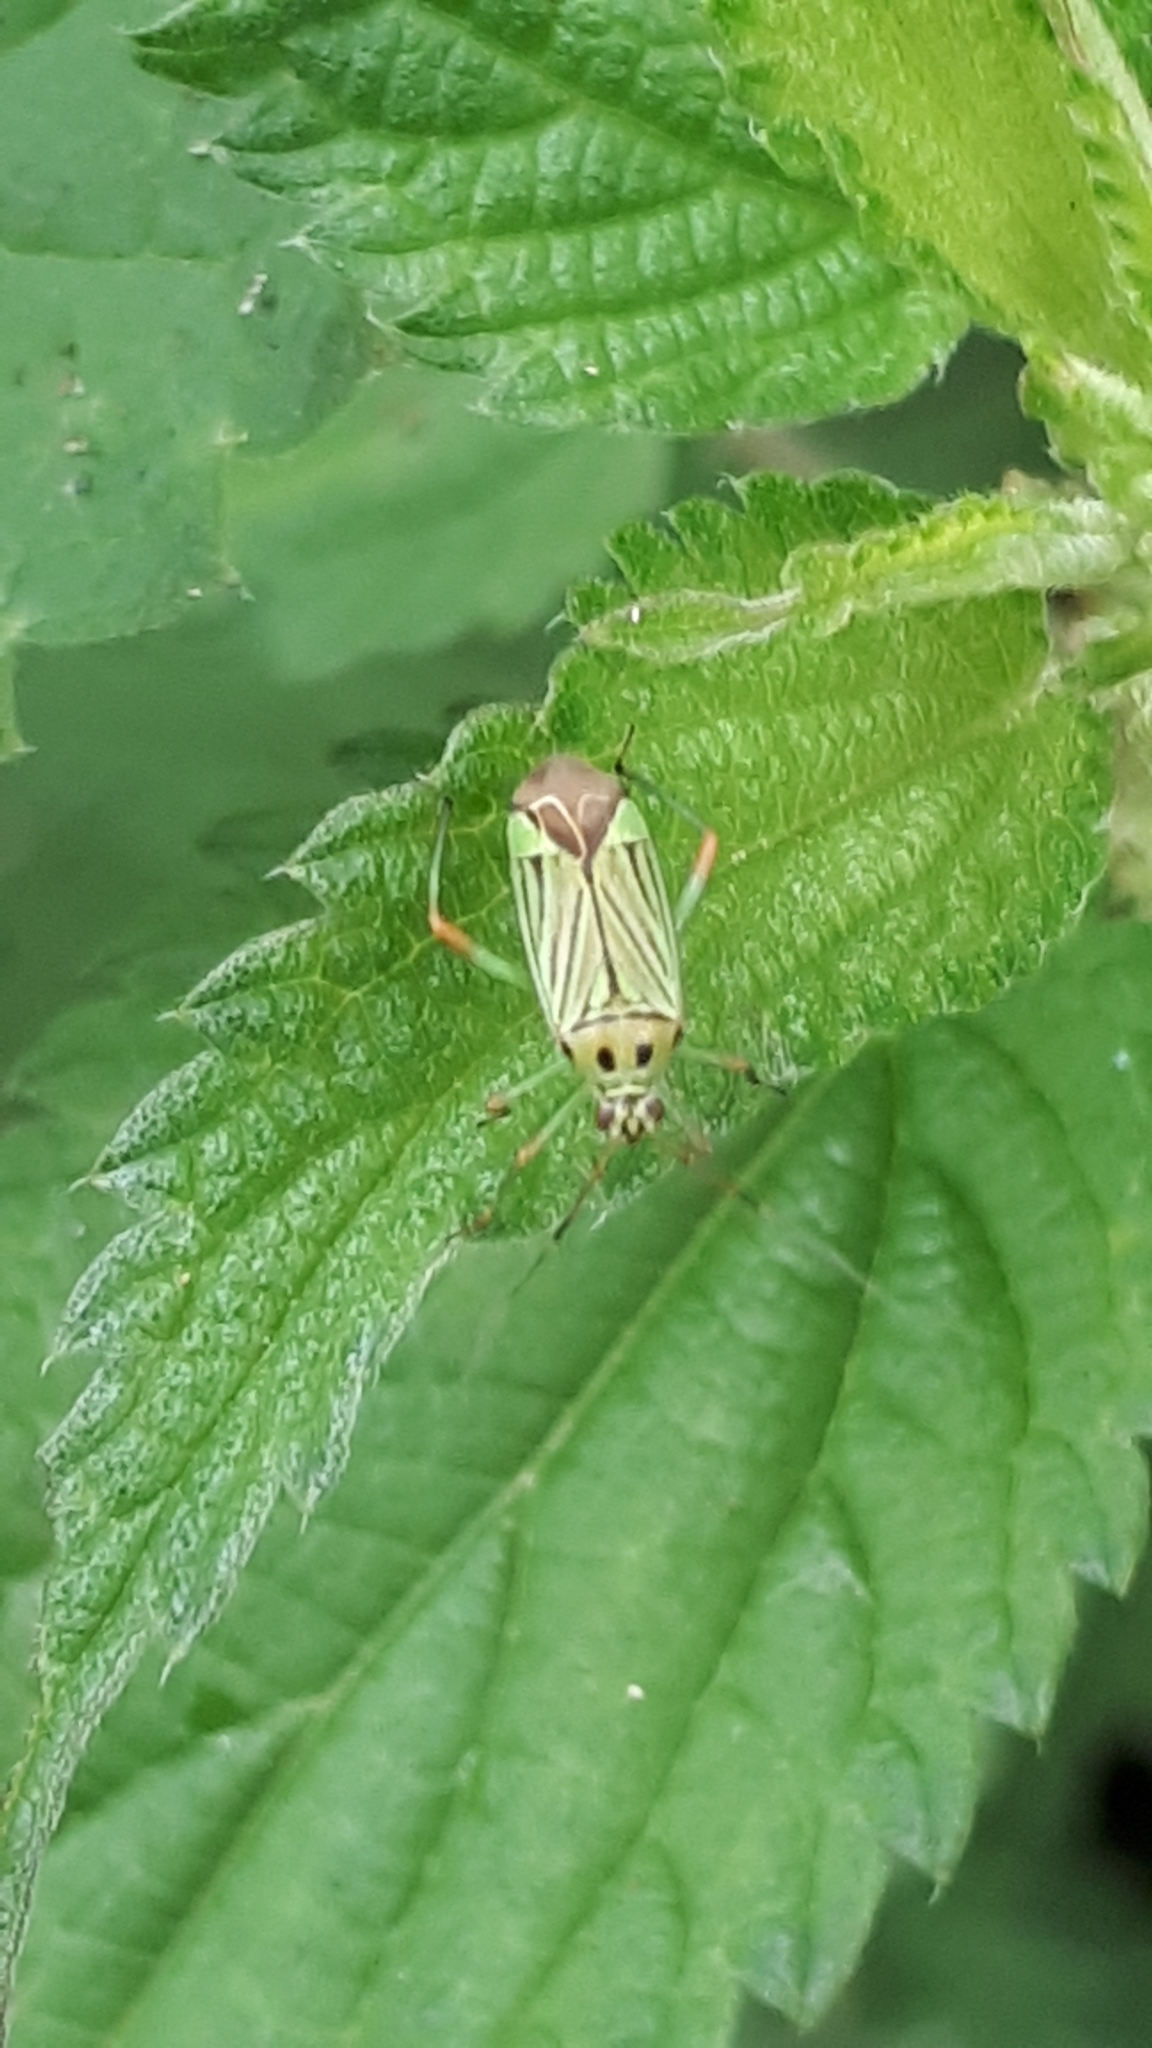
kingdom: Animalia
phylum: Arthropoda
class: Insecta
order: Hemiptera
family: Miridae
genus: Mermitelocerus
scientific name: Mermitelocerus schmidtii
